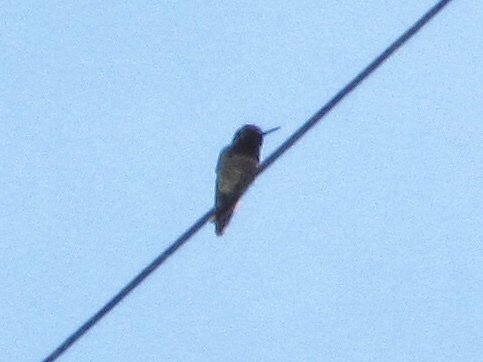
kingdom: Animalia
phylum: Chordata
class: Aves
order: Apodiformes
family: Trochilidae
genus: Calypte
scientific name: Calypte anna
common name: Anna's hummingbird
